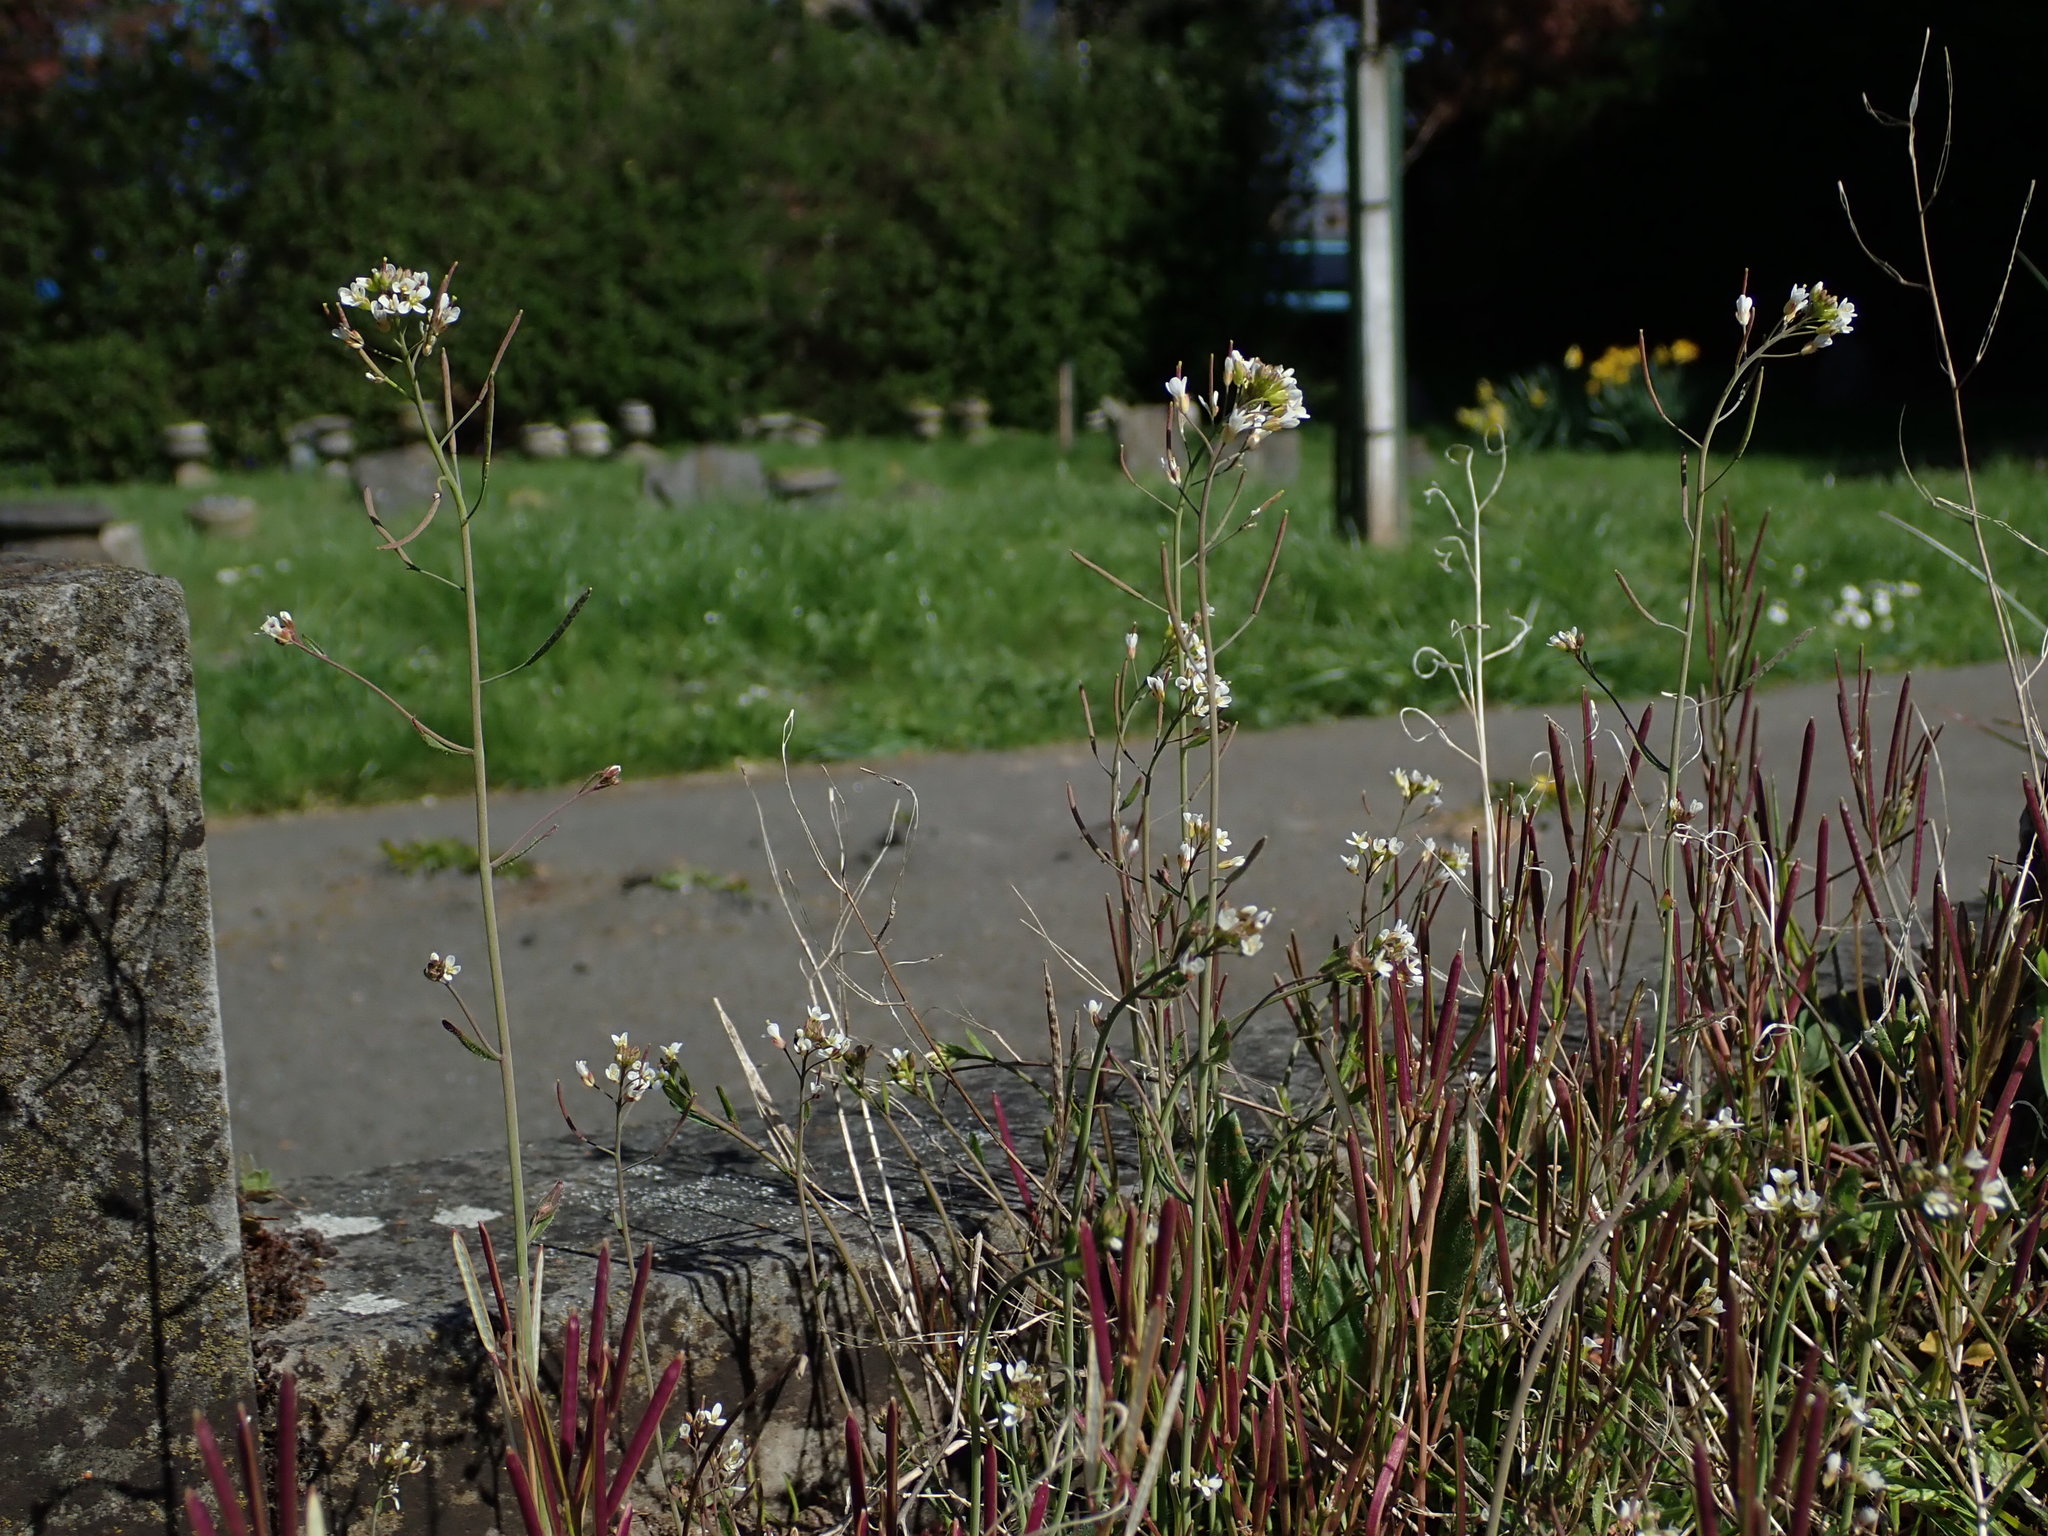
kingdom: Plantae
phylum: Tracheophyta
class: Magnoliopsida
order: Brassicales
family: Brassicaceae
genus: Arabidopsis
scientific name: Arabidopsis thaliana
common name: Thale cress
